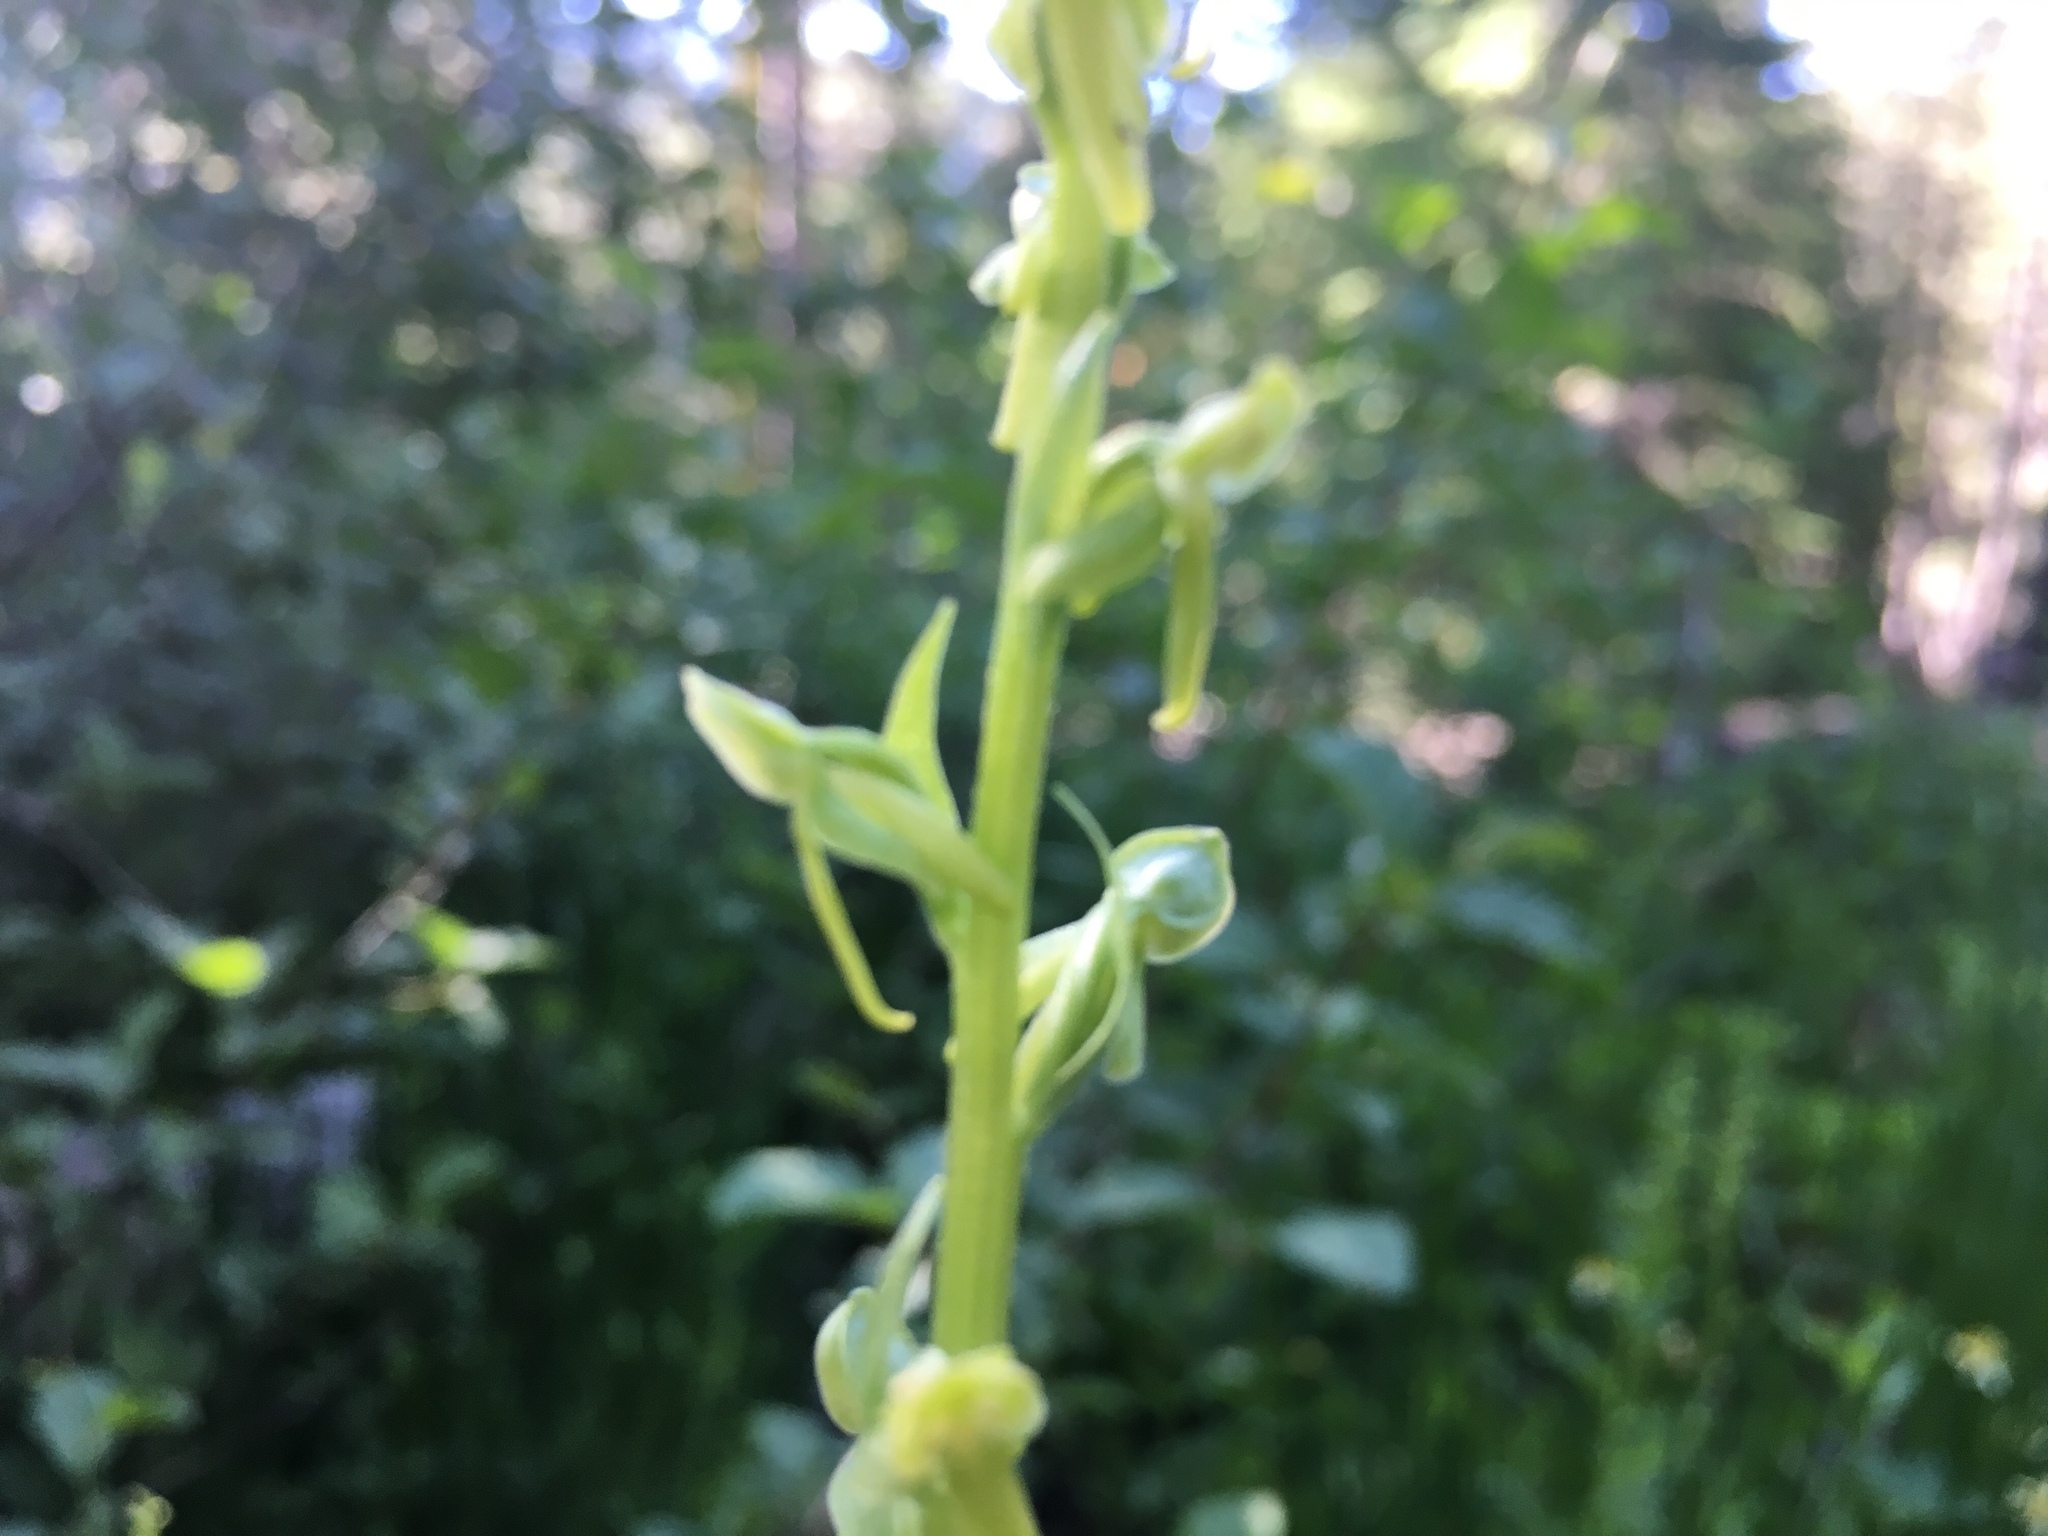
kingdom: Plantae
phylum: Tracheophyta
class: Liliopsida
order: Asparagales
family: Orchidaceae
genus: Platanthera
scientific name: Platanthera sparsiflora
